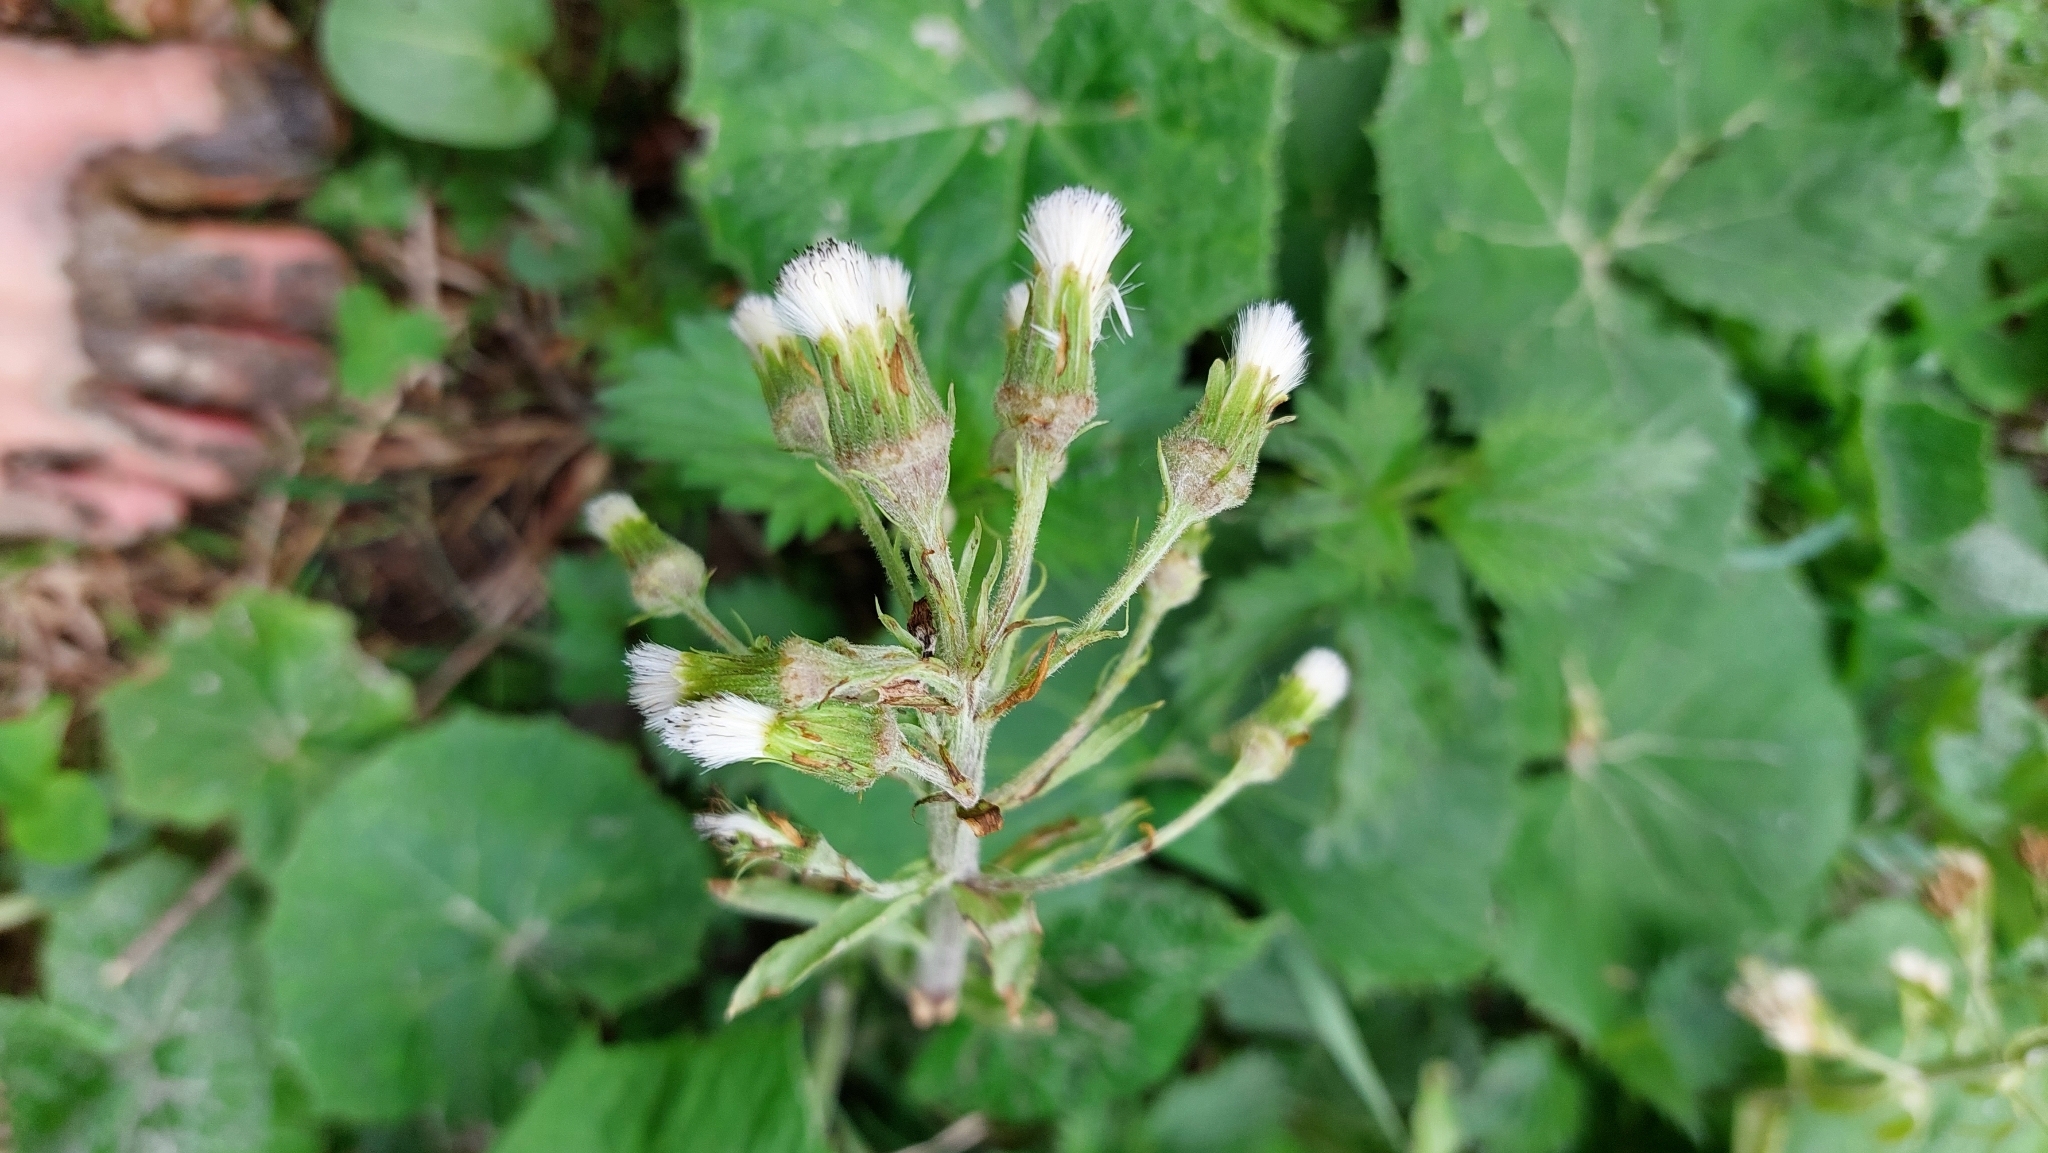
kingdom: Plantae
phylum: Tracheophyta
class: Magnoliopsida
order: Asterales
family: Asteraceae
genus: Petasites
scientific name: Petasites albus
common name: White butterbur
